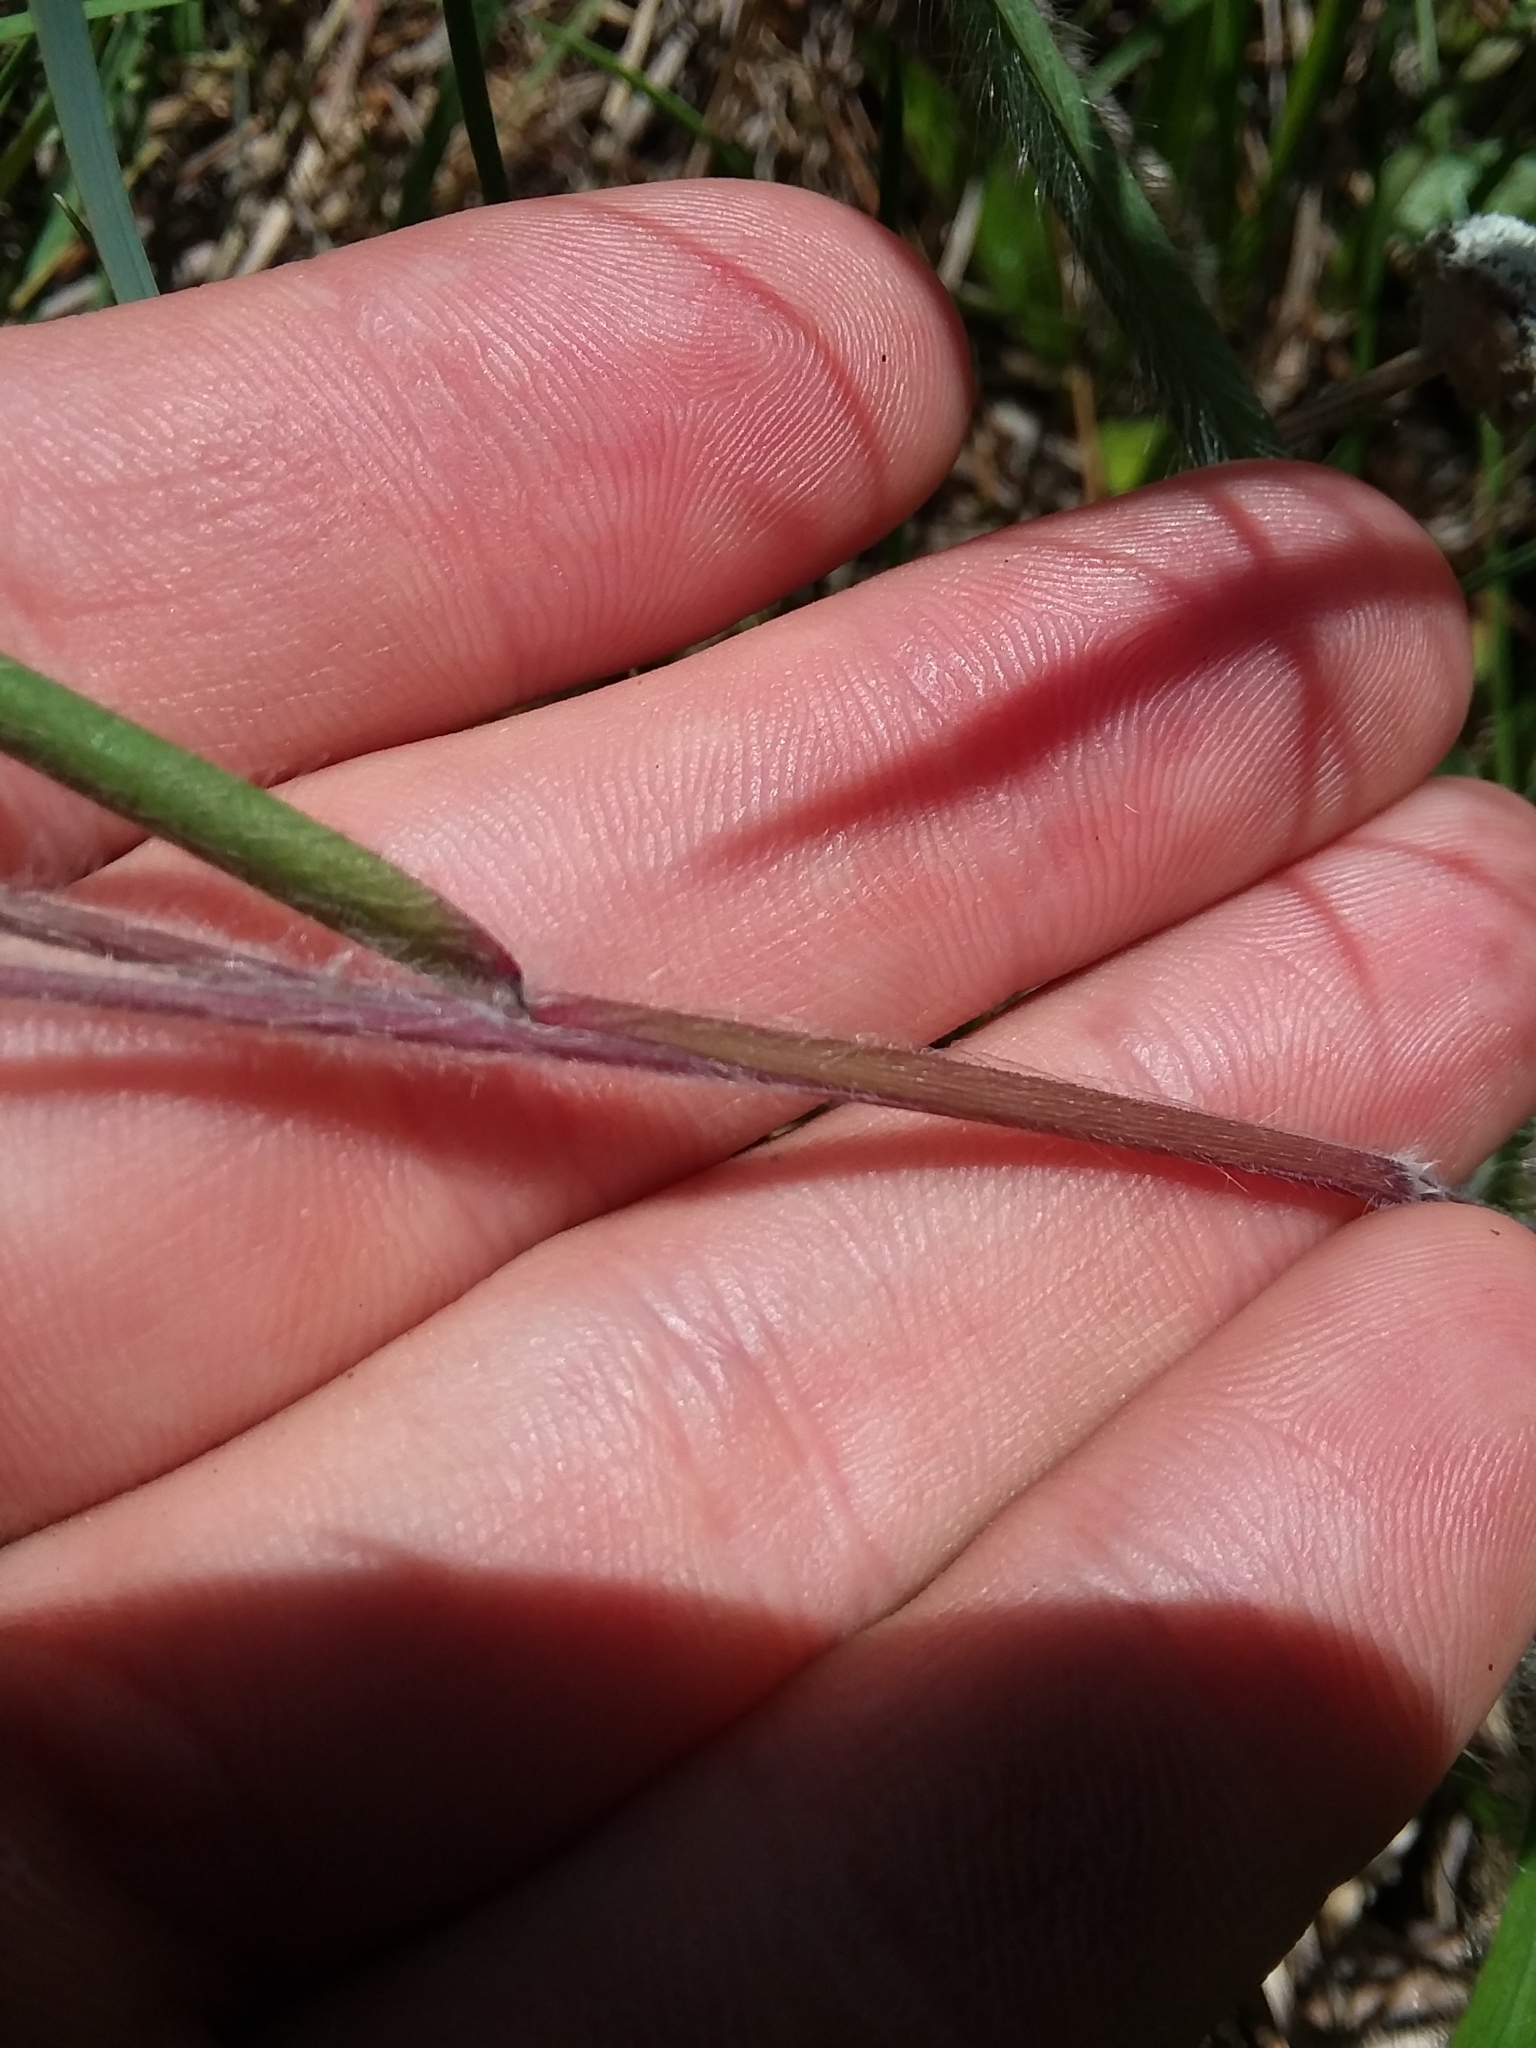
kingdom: Plantae
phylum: Tracheophyta
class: Liliopsida
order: Poales
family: Poaceae
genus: Dichanthelium
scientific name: Dichanthelium consanguineum
